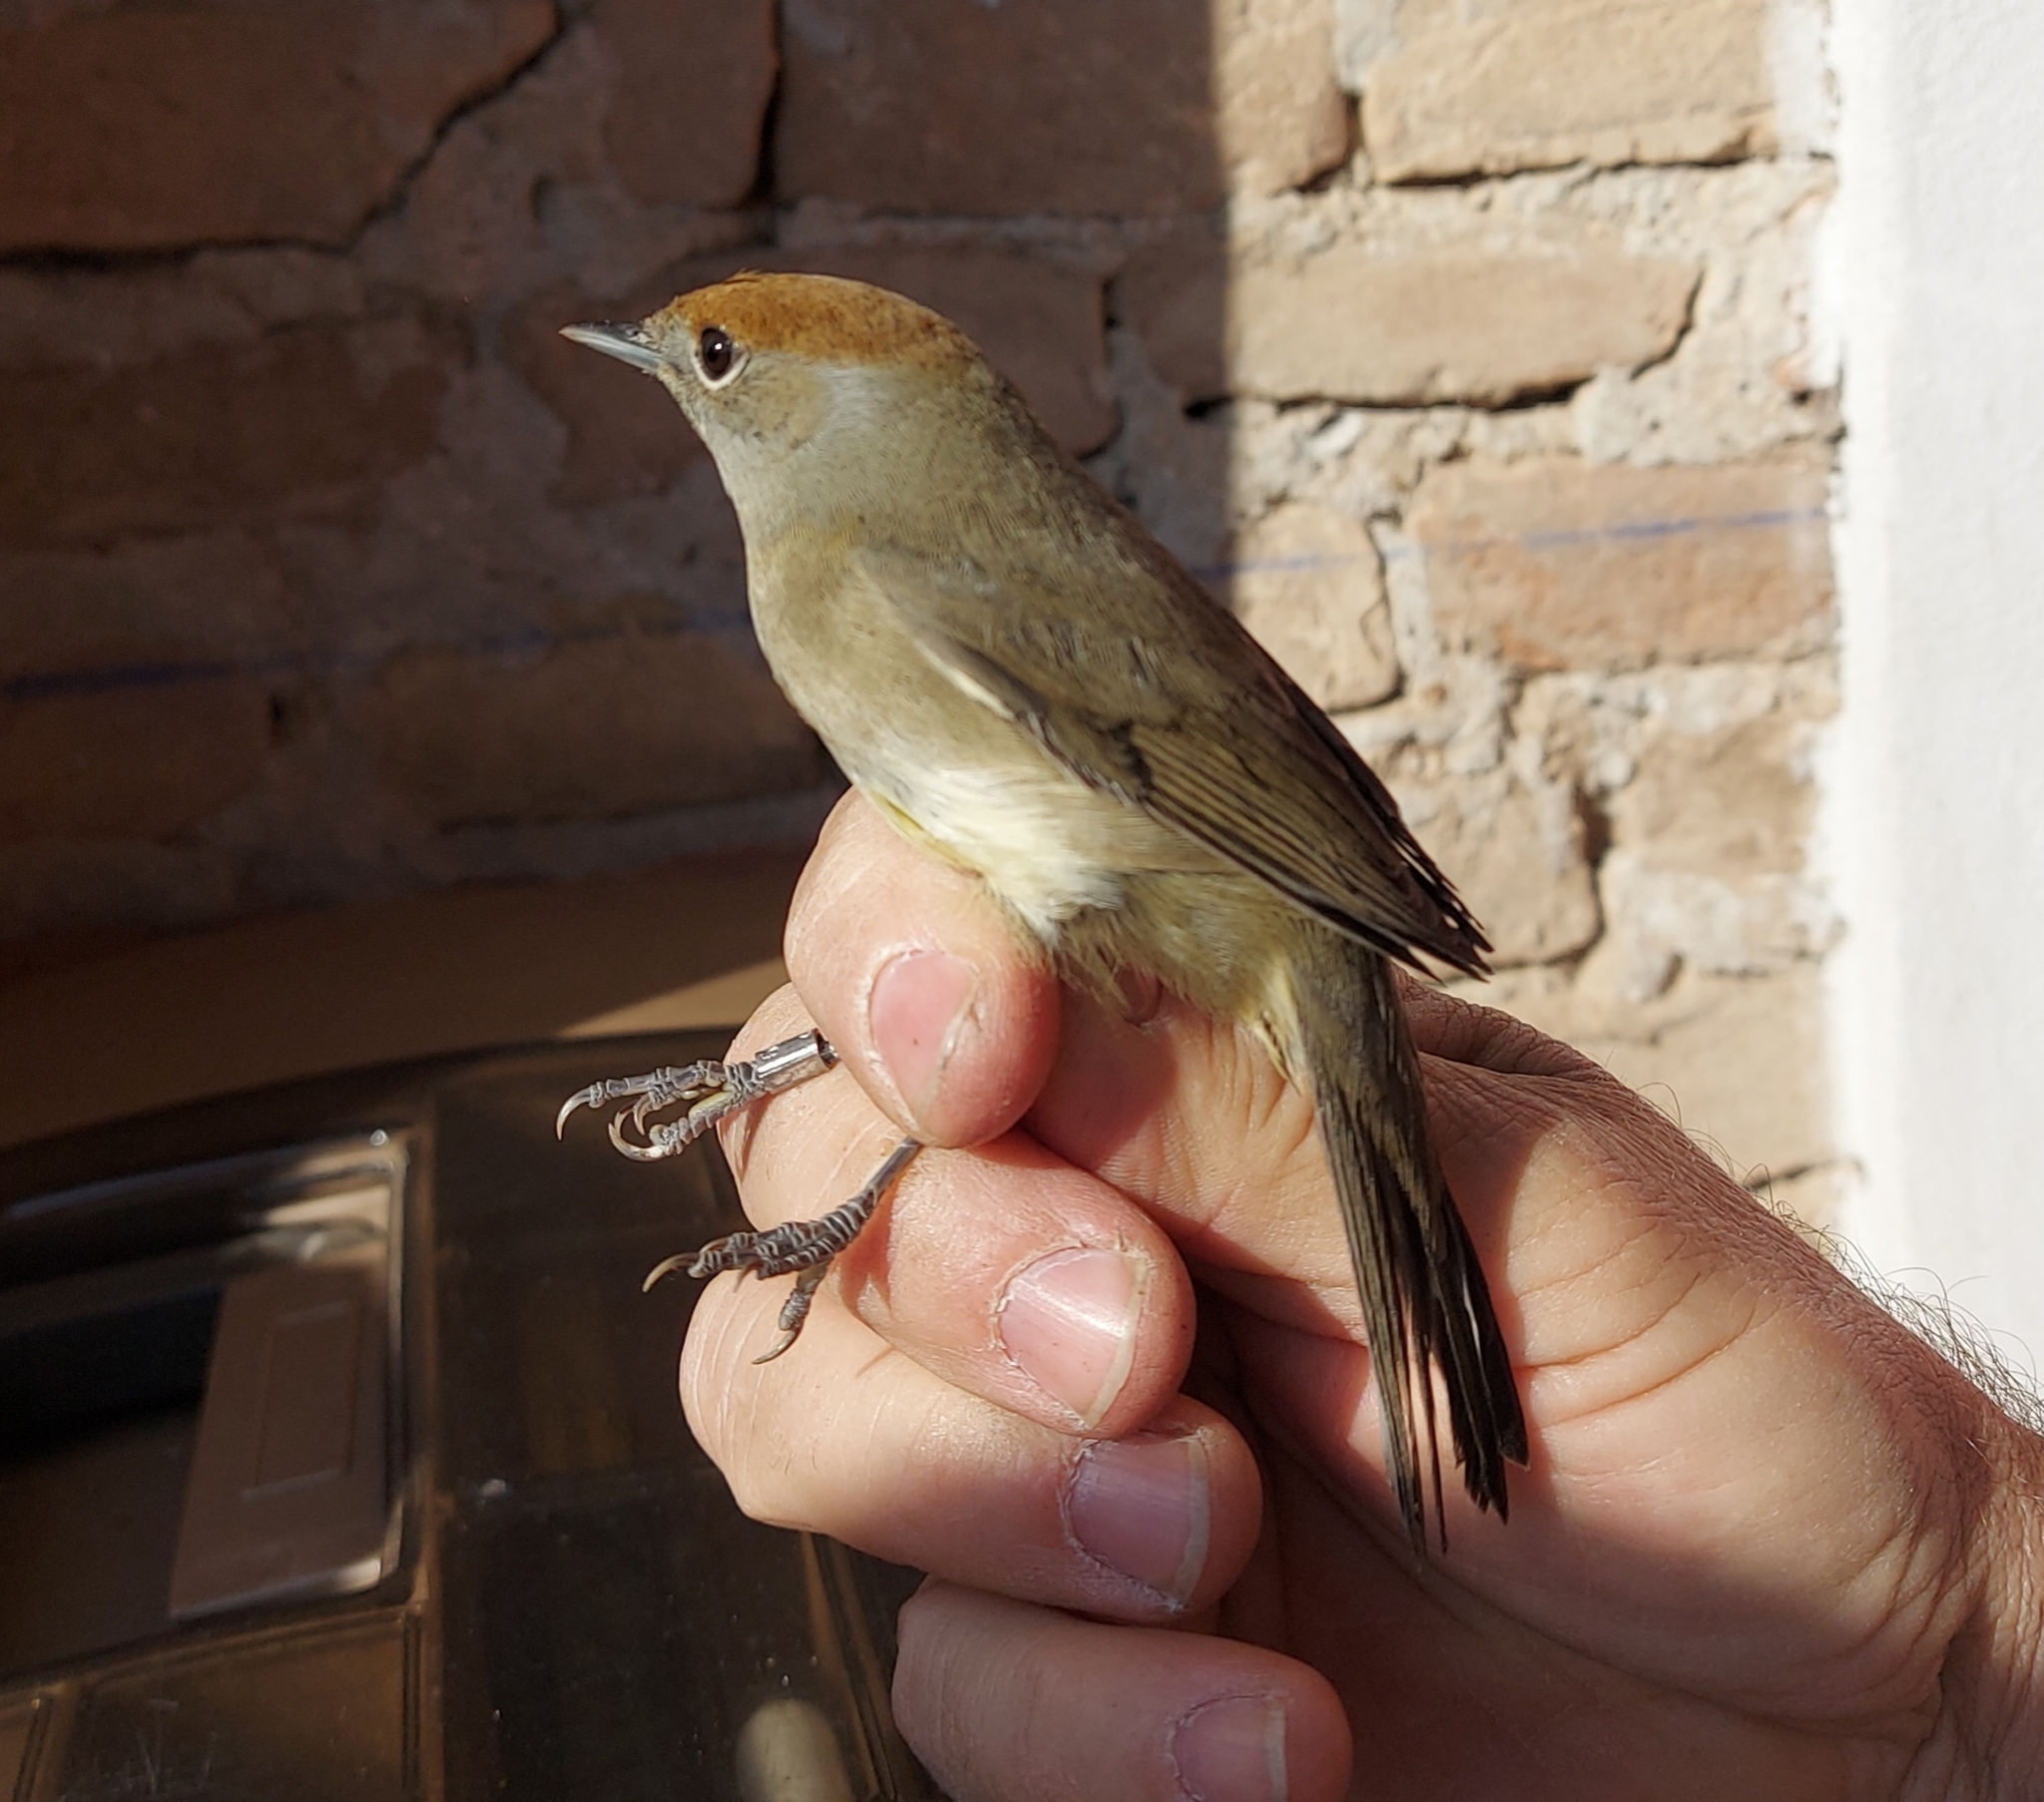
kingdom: Animalia
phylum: Chordata
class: Aves
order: Passeriformes
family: Sylviidae
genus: Sylvia
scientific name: Sylvia atricapilla
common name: Eurasian blackcap
